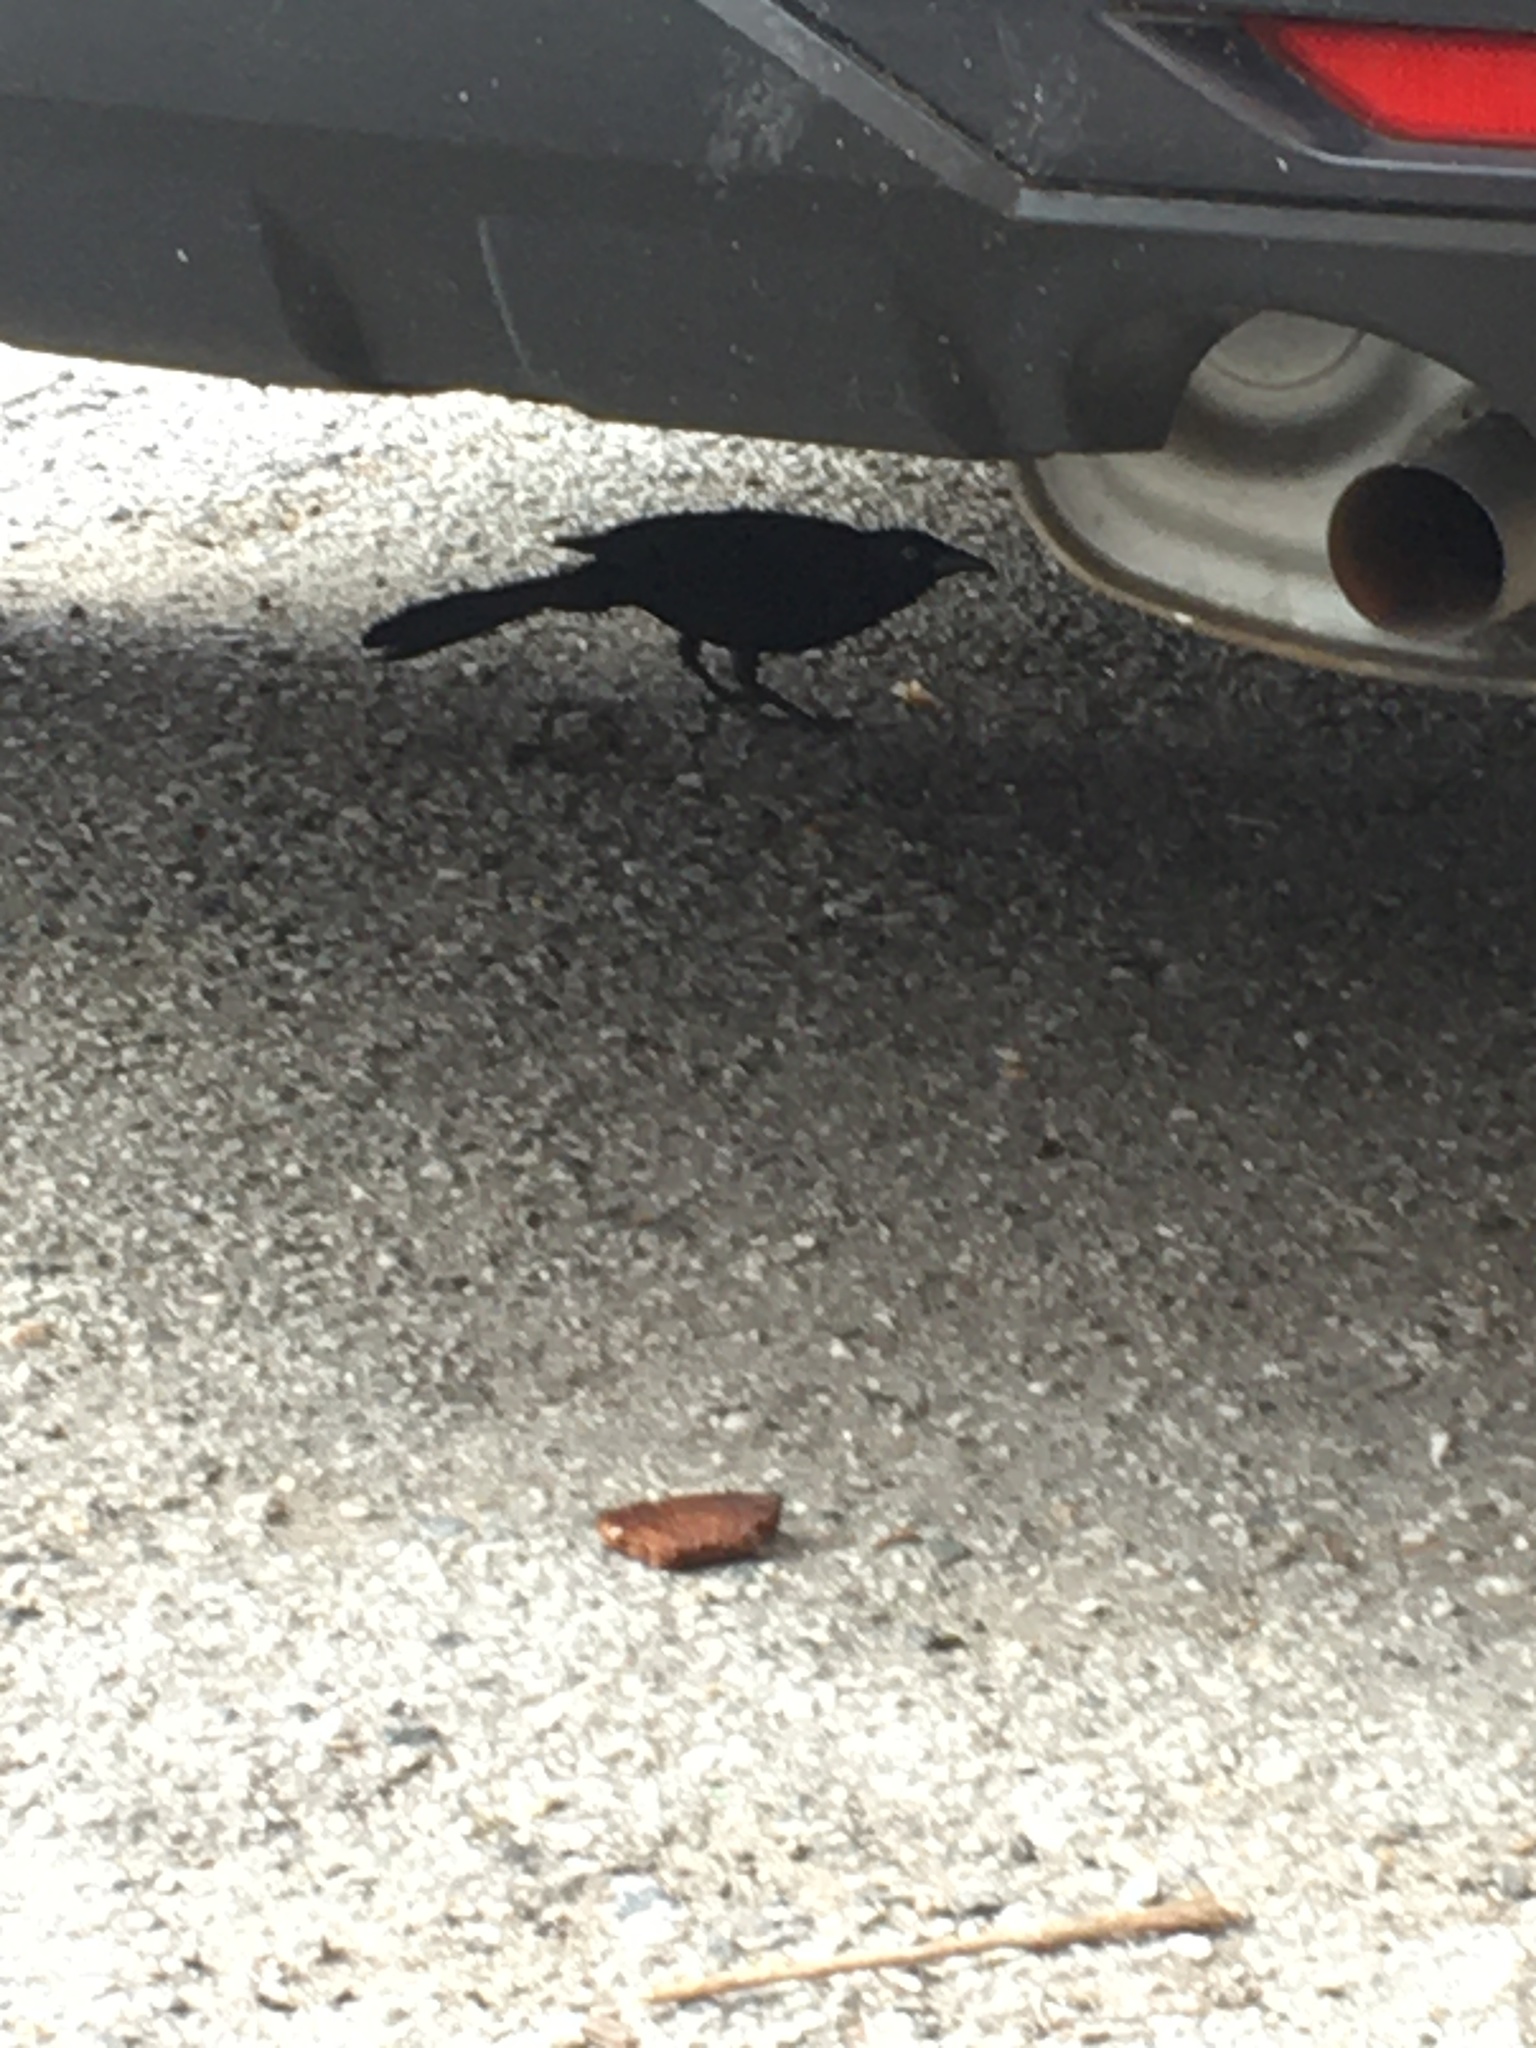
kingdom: Animalia
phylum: Chordata
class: Aves
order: Passeriformes
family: Icteridae
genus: Quiscalus
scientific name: Quiscalus quiscula
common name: Common grackle
